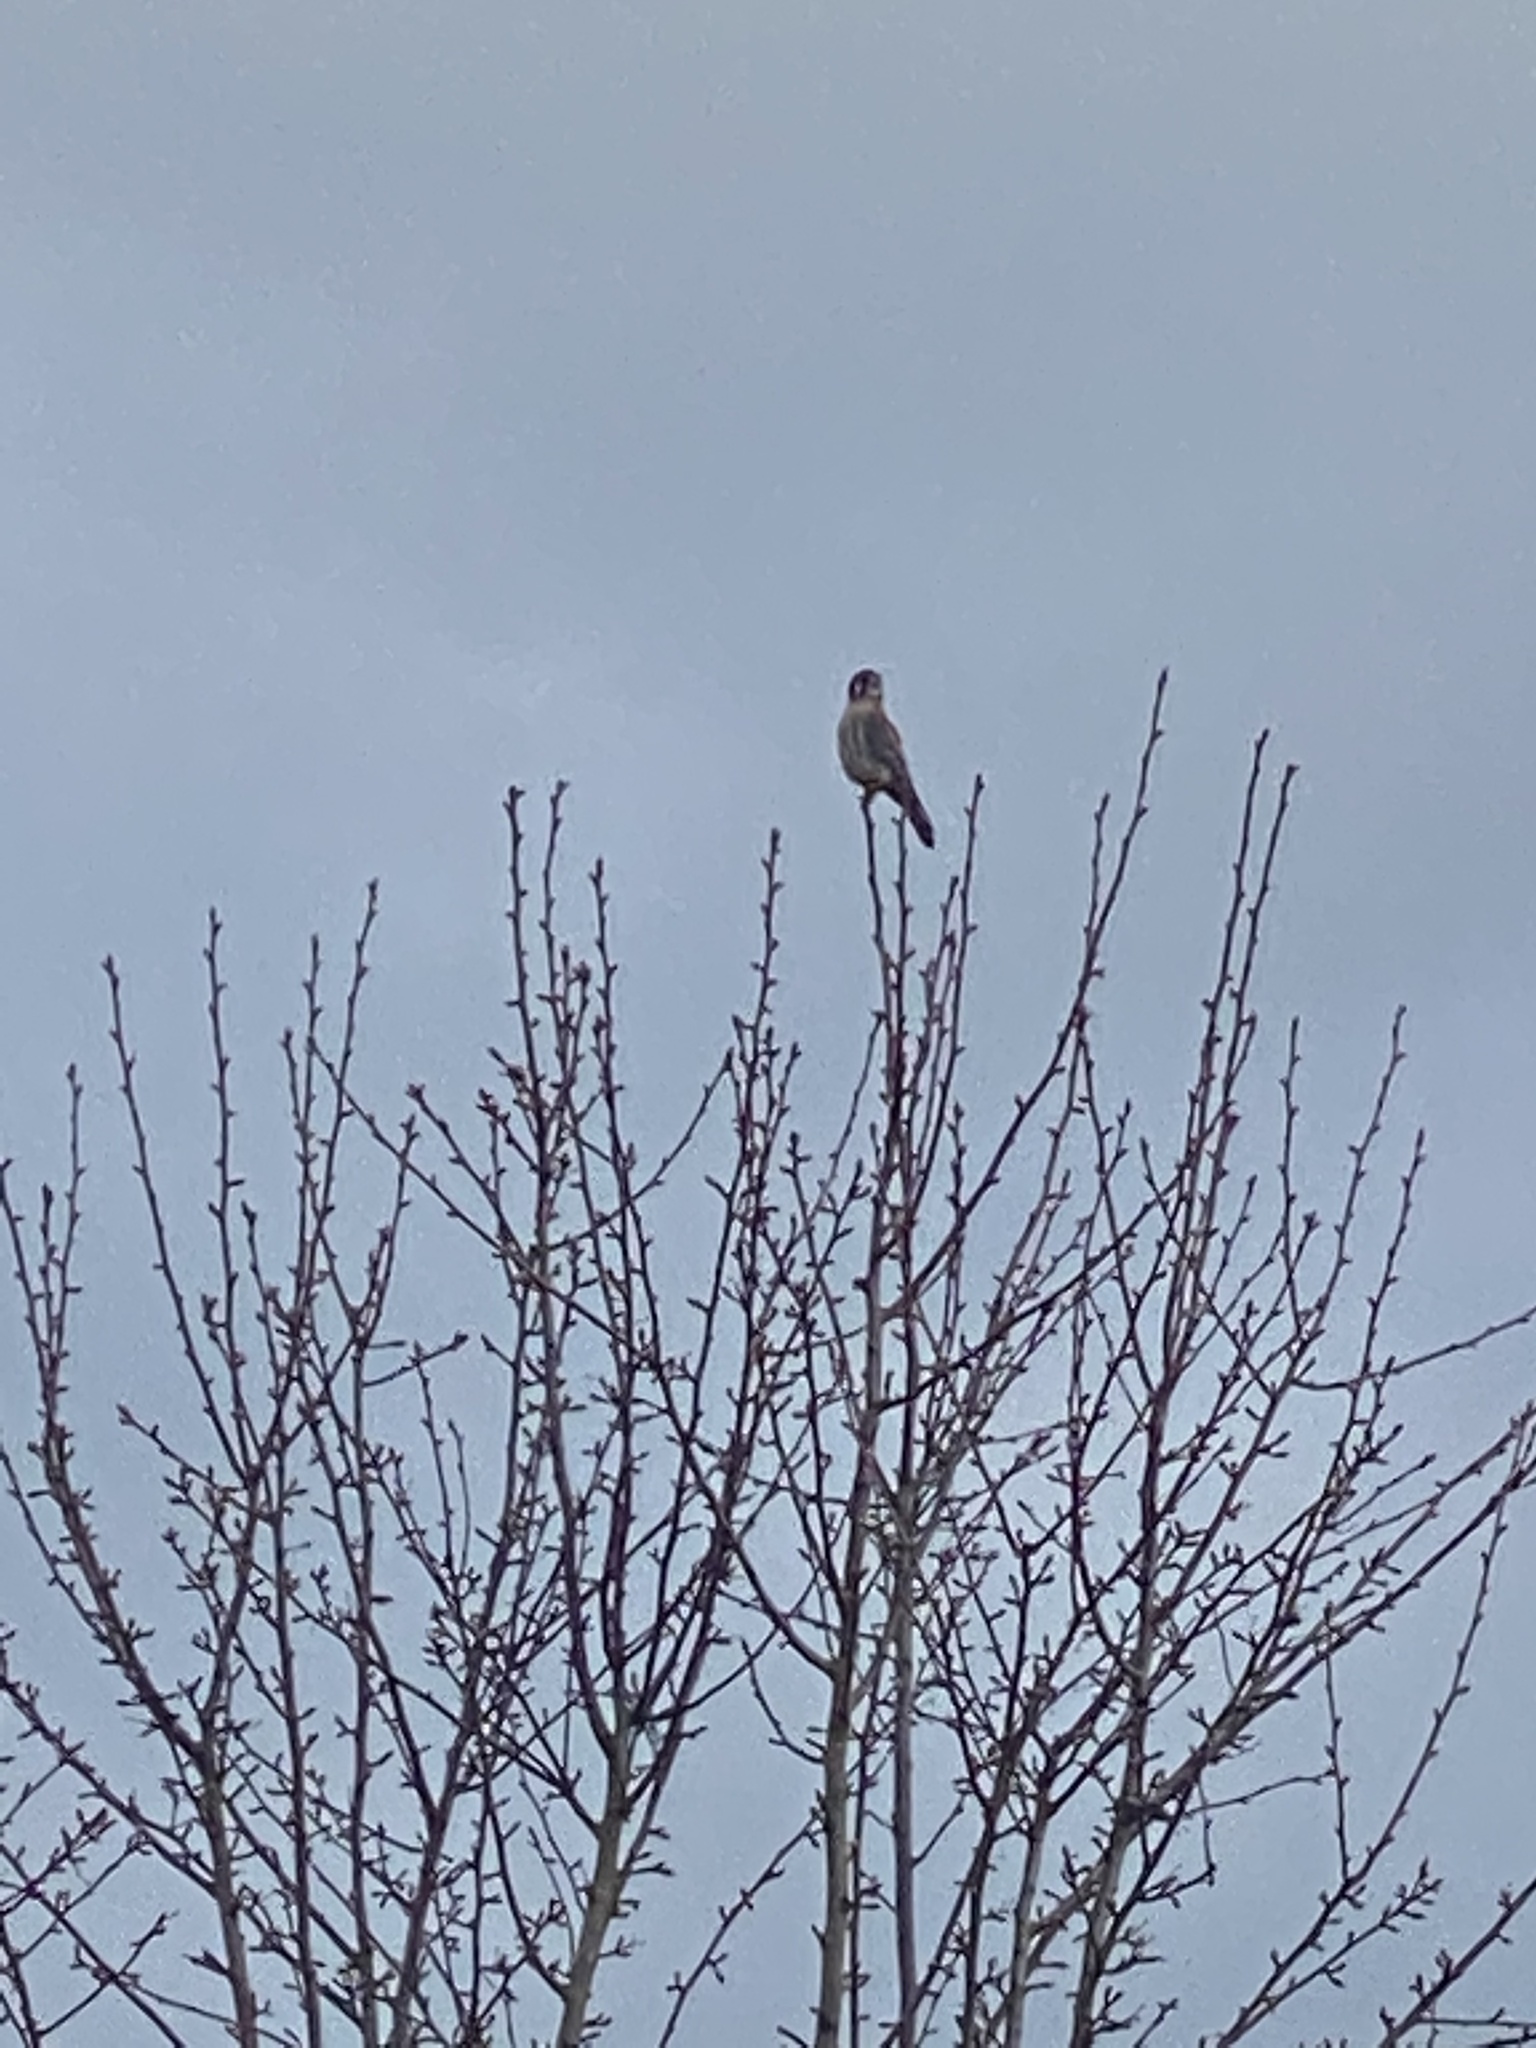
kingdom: Animalia
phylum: Chordata
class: Aves
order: Falconiformes
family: Falconidae
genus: Falco
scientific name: Falco sparverius
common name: American kestrel
